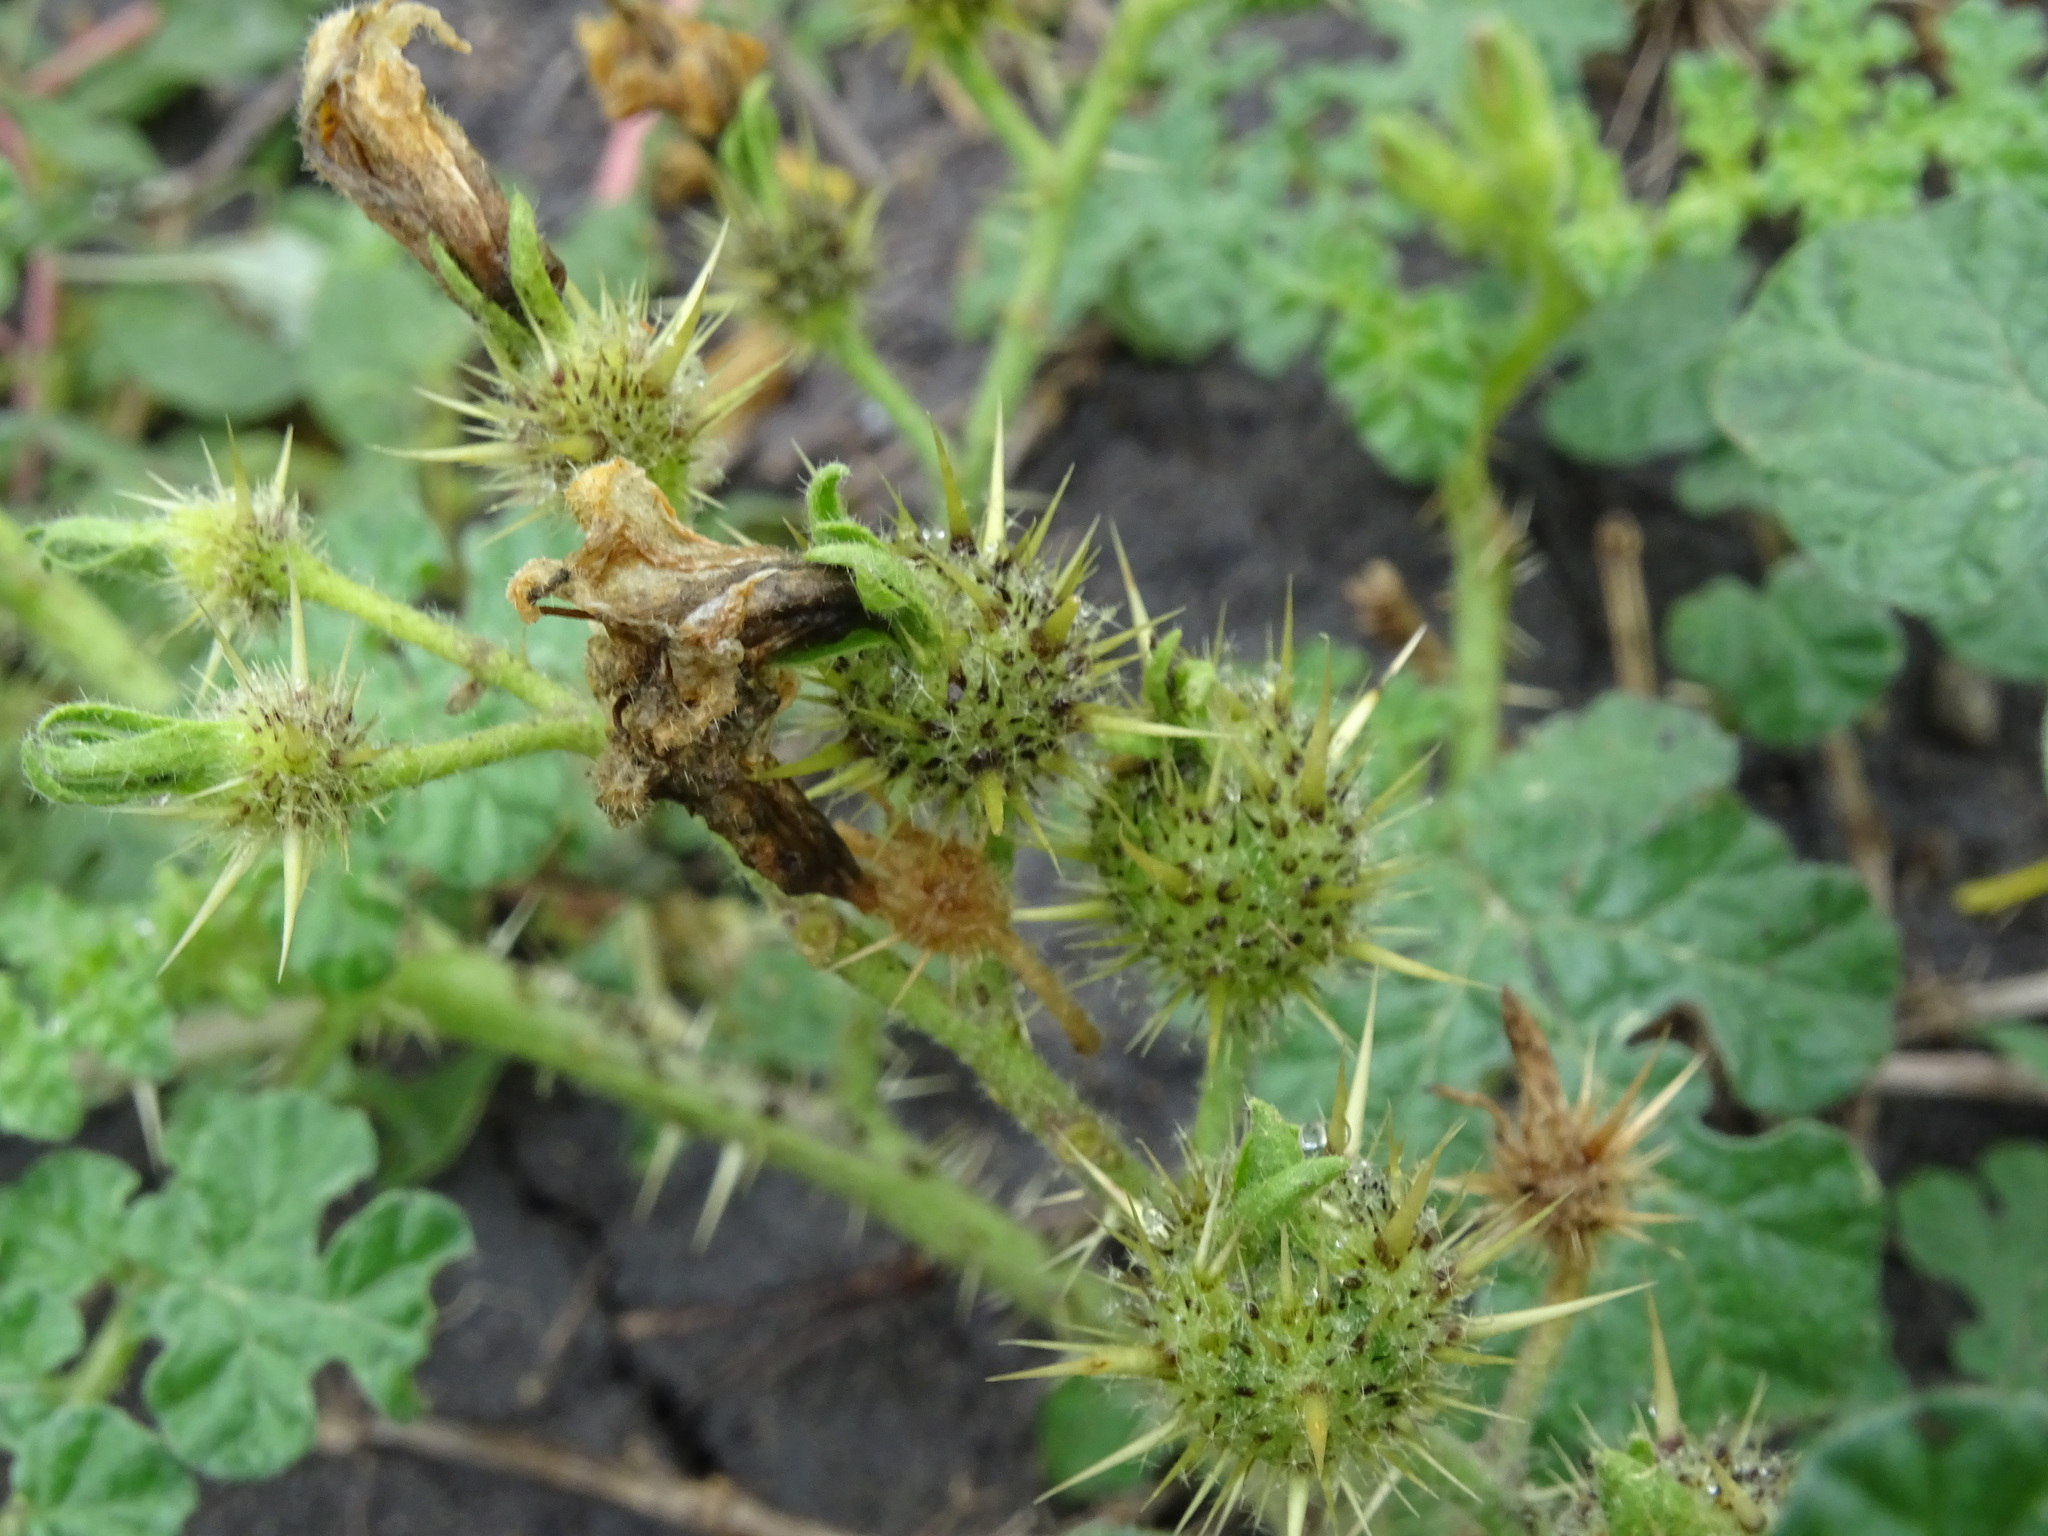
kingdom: Plantae
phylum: Tracheophyta
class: Magnoliopsida
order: Solanales
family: Solanaceae
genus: Solanum
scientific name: Solanum angustifolium
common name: Buffalobur nightshade
